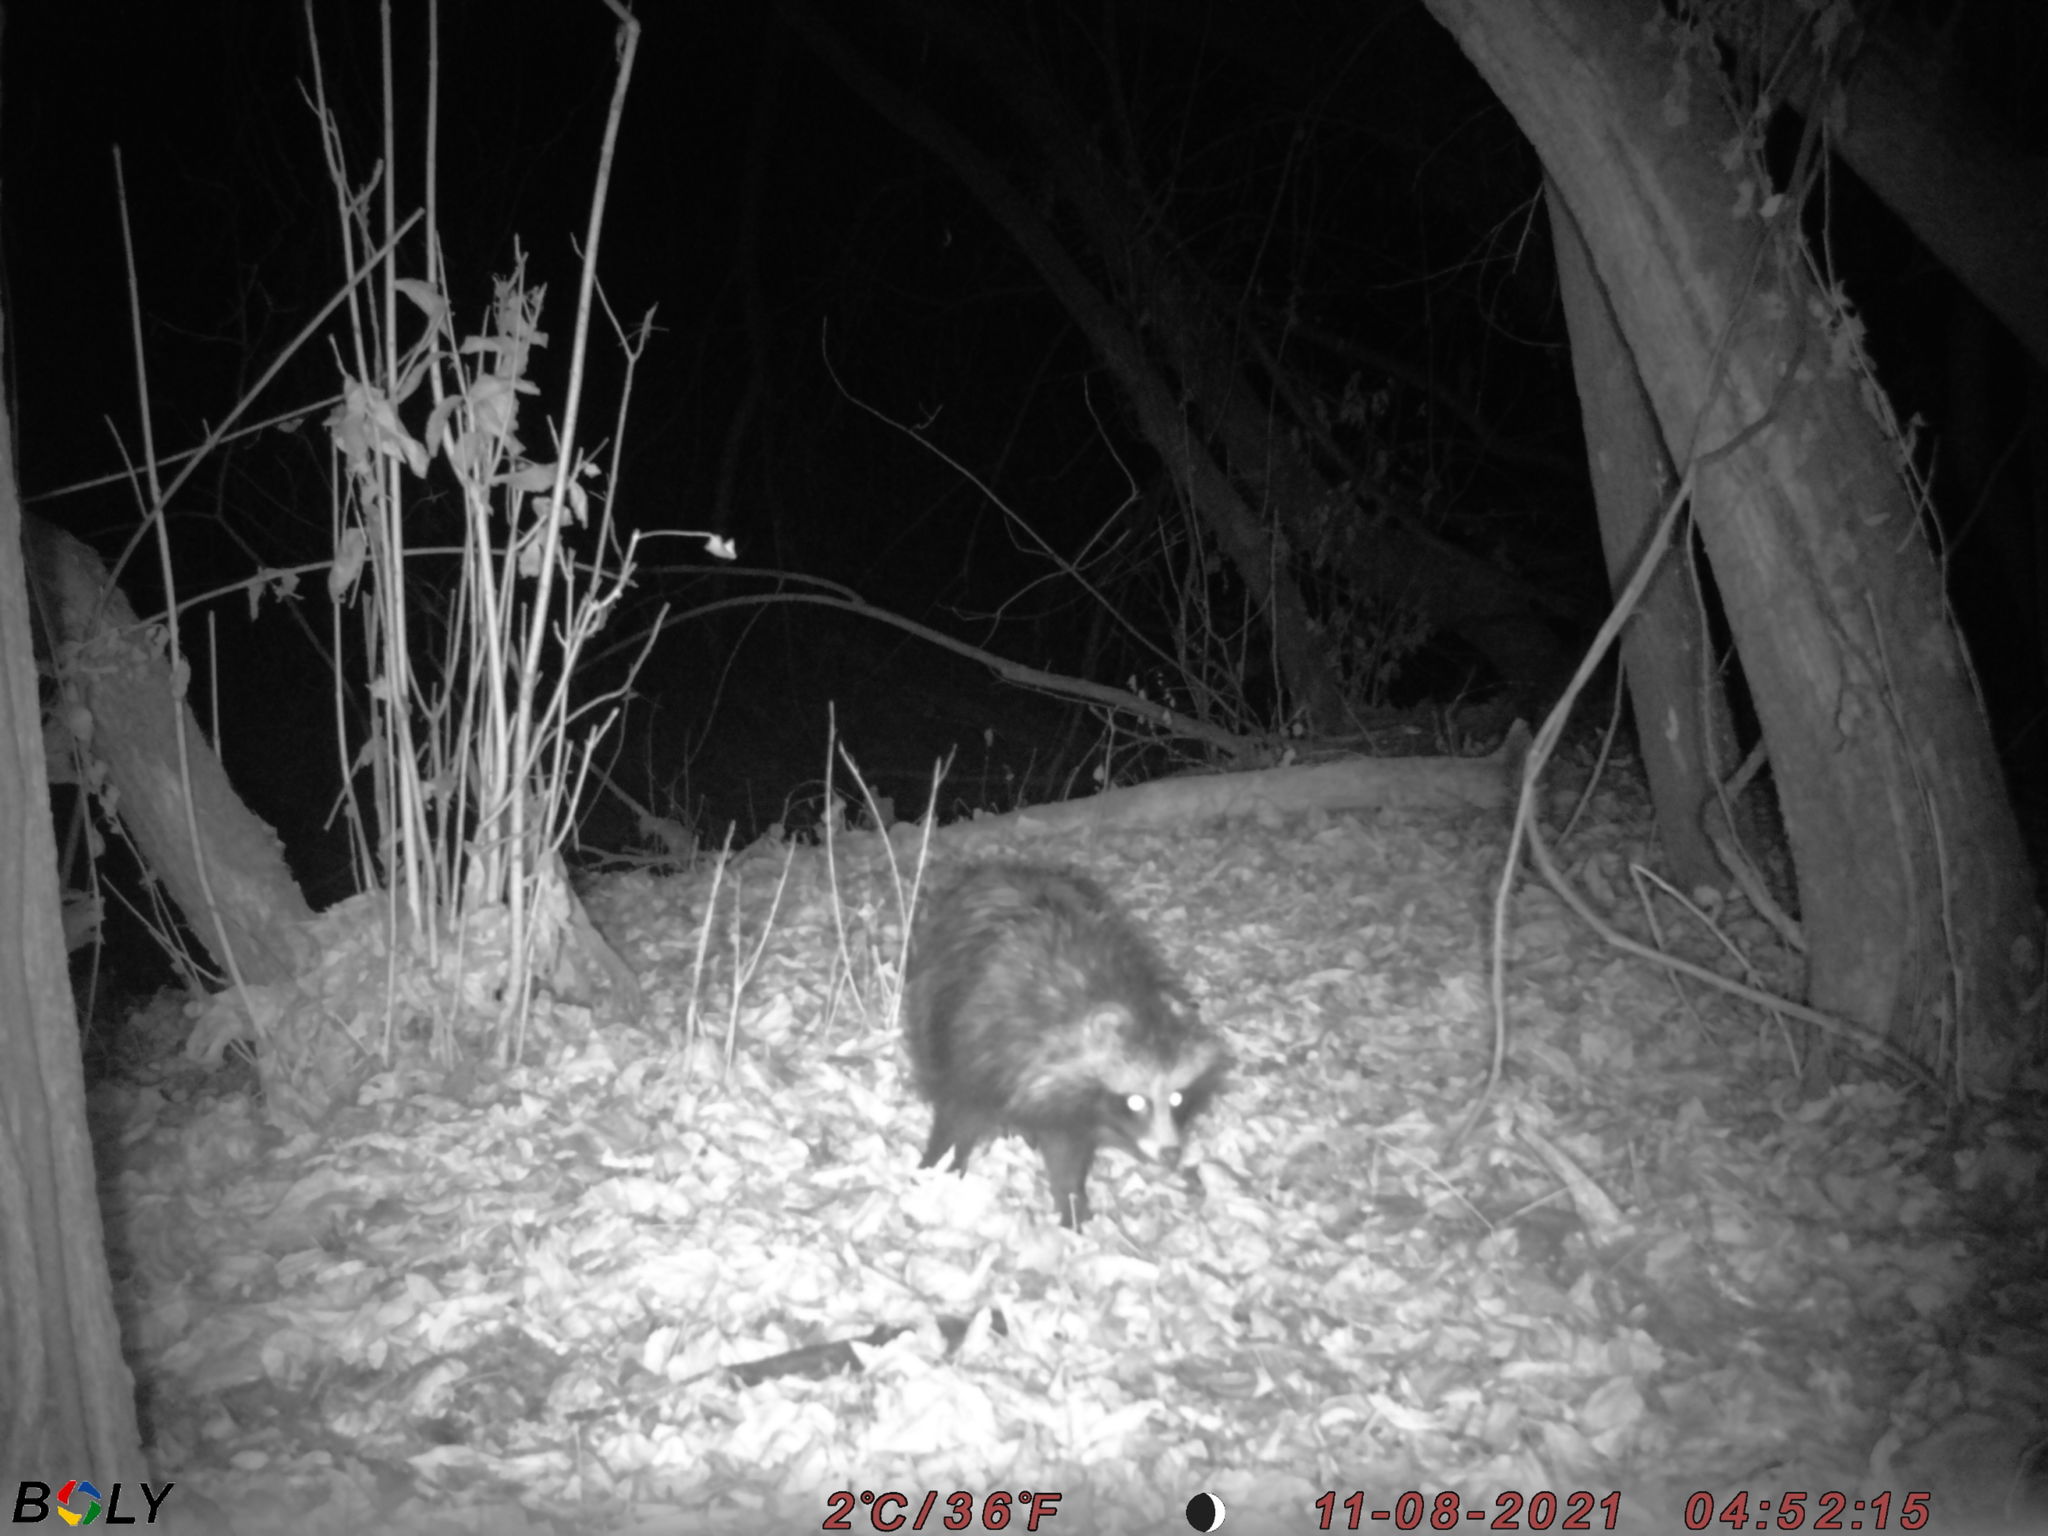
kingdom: Animalia
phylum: Chordata
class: Mammalia
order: Carnivora
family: Canidae
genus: Nyctereutes
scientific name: Nyctereutes procyonoides
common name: Raccoon dog
